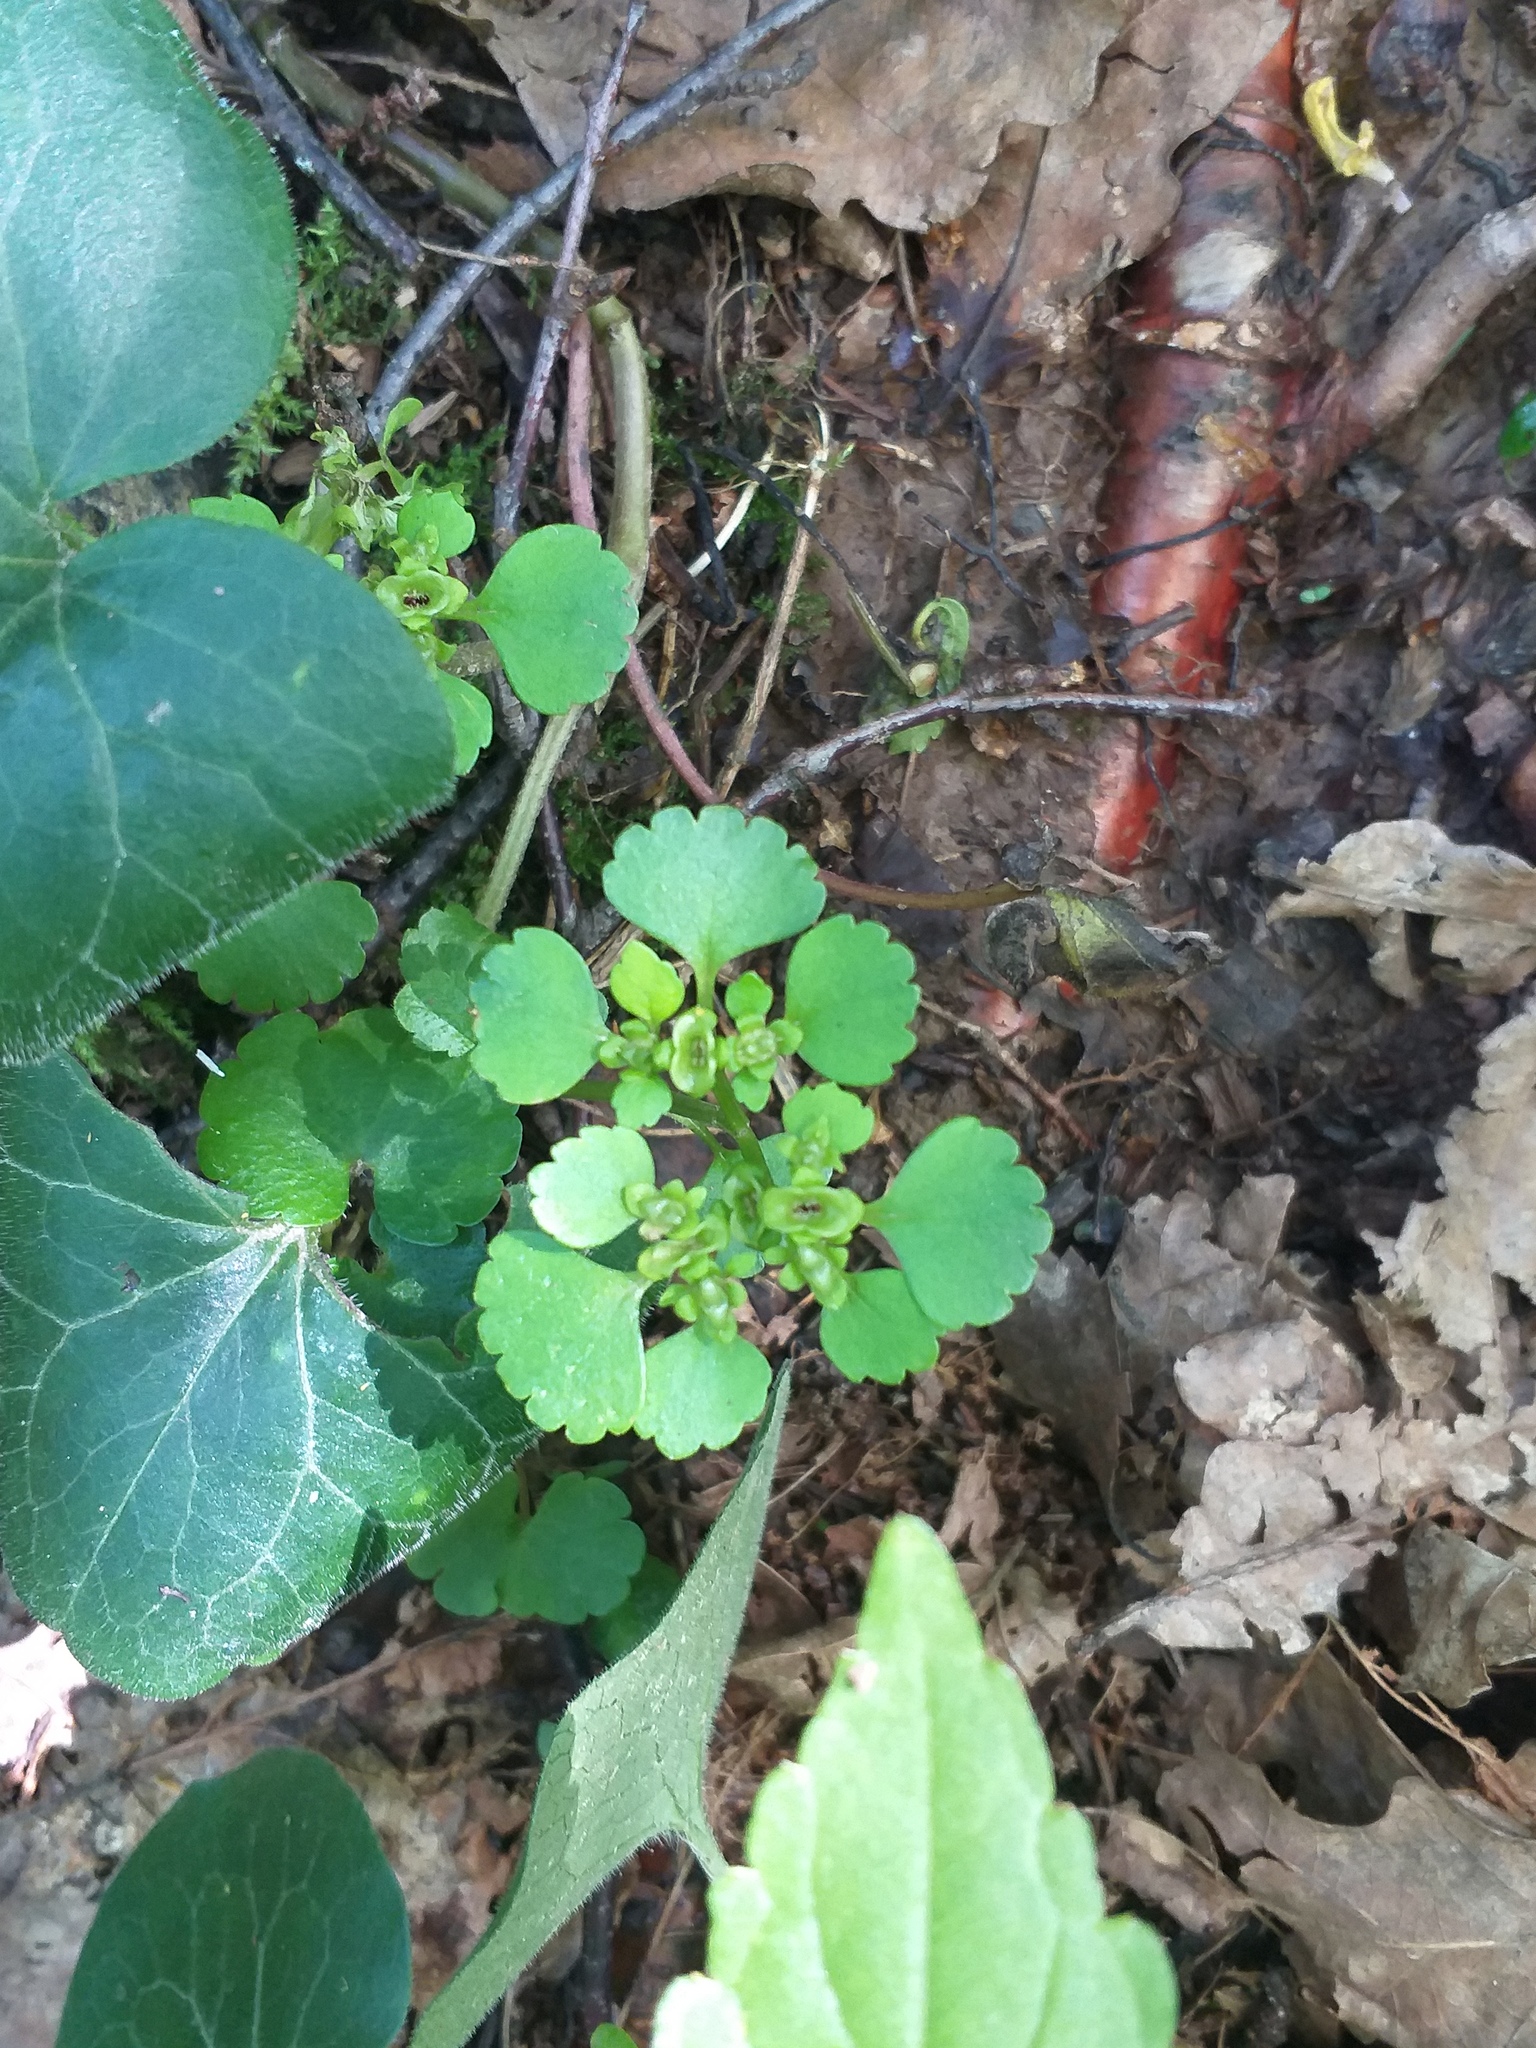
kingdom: Plantae
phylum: Tracheophyta
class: Magnoliopsida
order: Saxifragales
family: Saxifragaceae
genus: Chrysosplenium
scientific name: Chrysosplenium alternifolium
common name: Alternate-leaved golden-saxifrage
